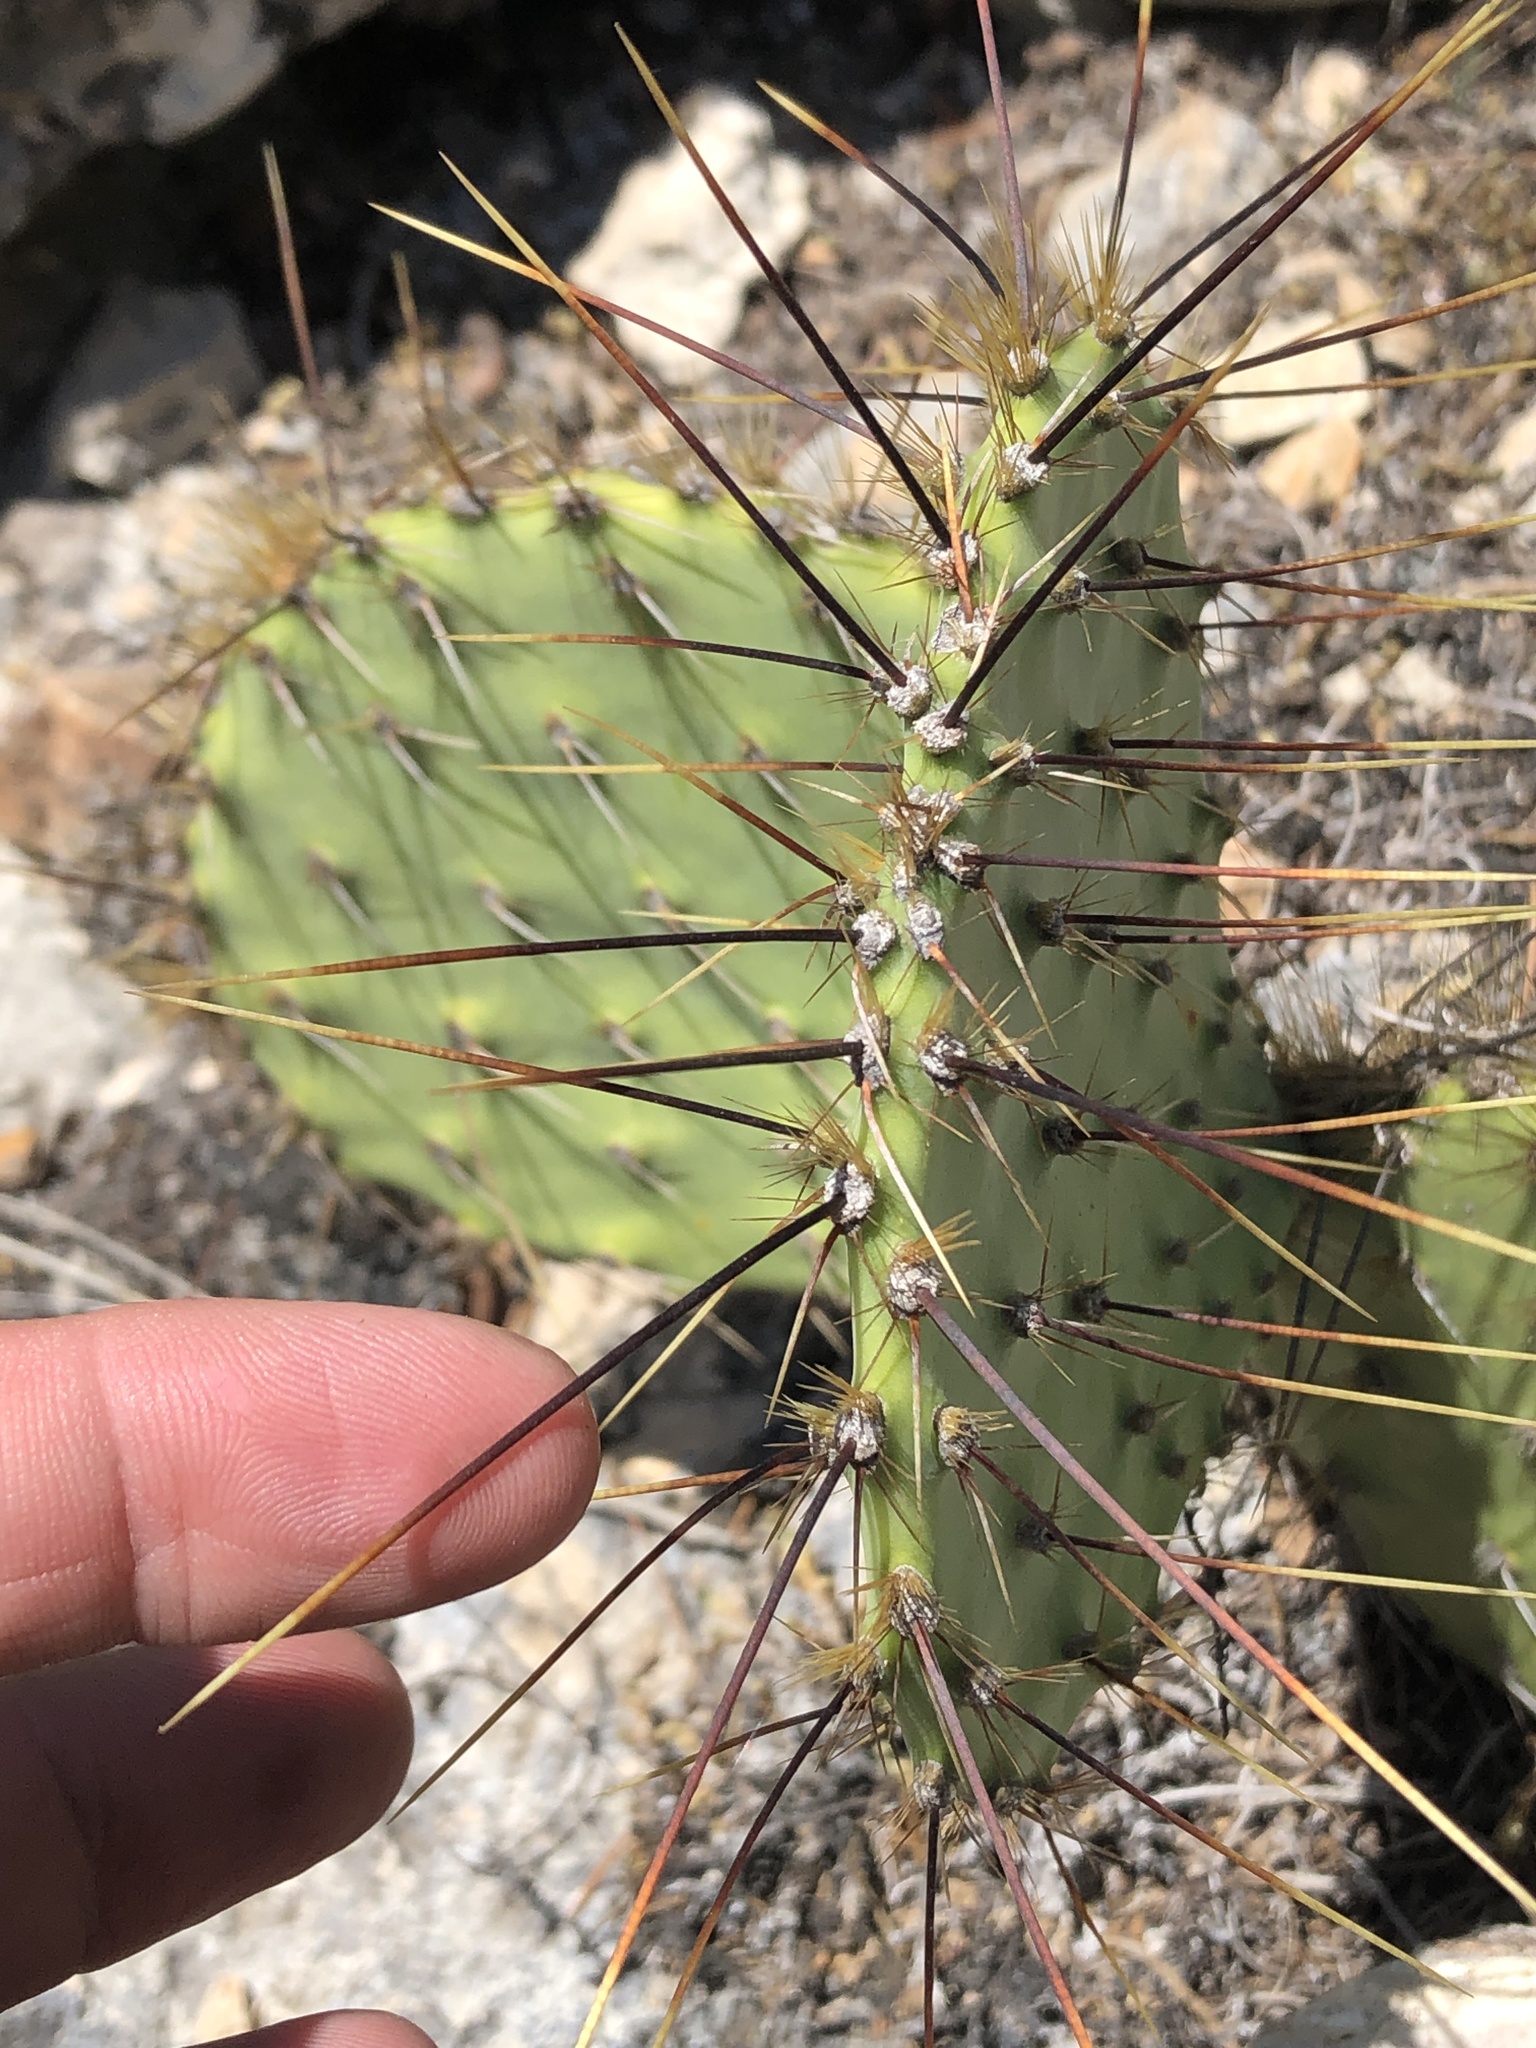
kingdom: Plantae
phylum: Tracheophyta
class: Magnoliopsida
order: Caryophyllales
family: Cactaceae
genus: Opuntia
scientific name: Opuntia atrispina
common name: Border prickly-pear
